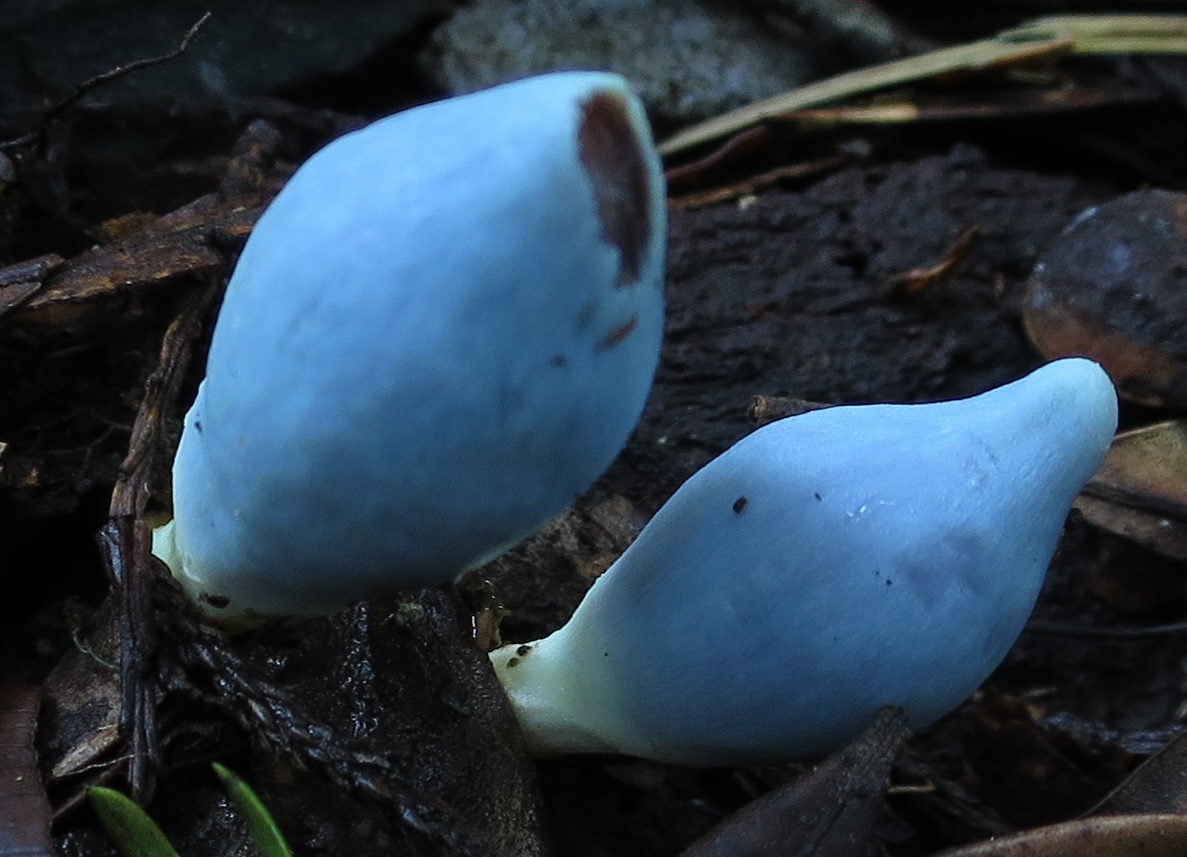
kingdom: Fungi
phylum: Basidiomycota
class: Agaricomycetes
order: Agaricales
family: Agaricaceae
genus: Clavogaster
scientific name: Clavogaster virescens
